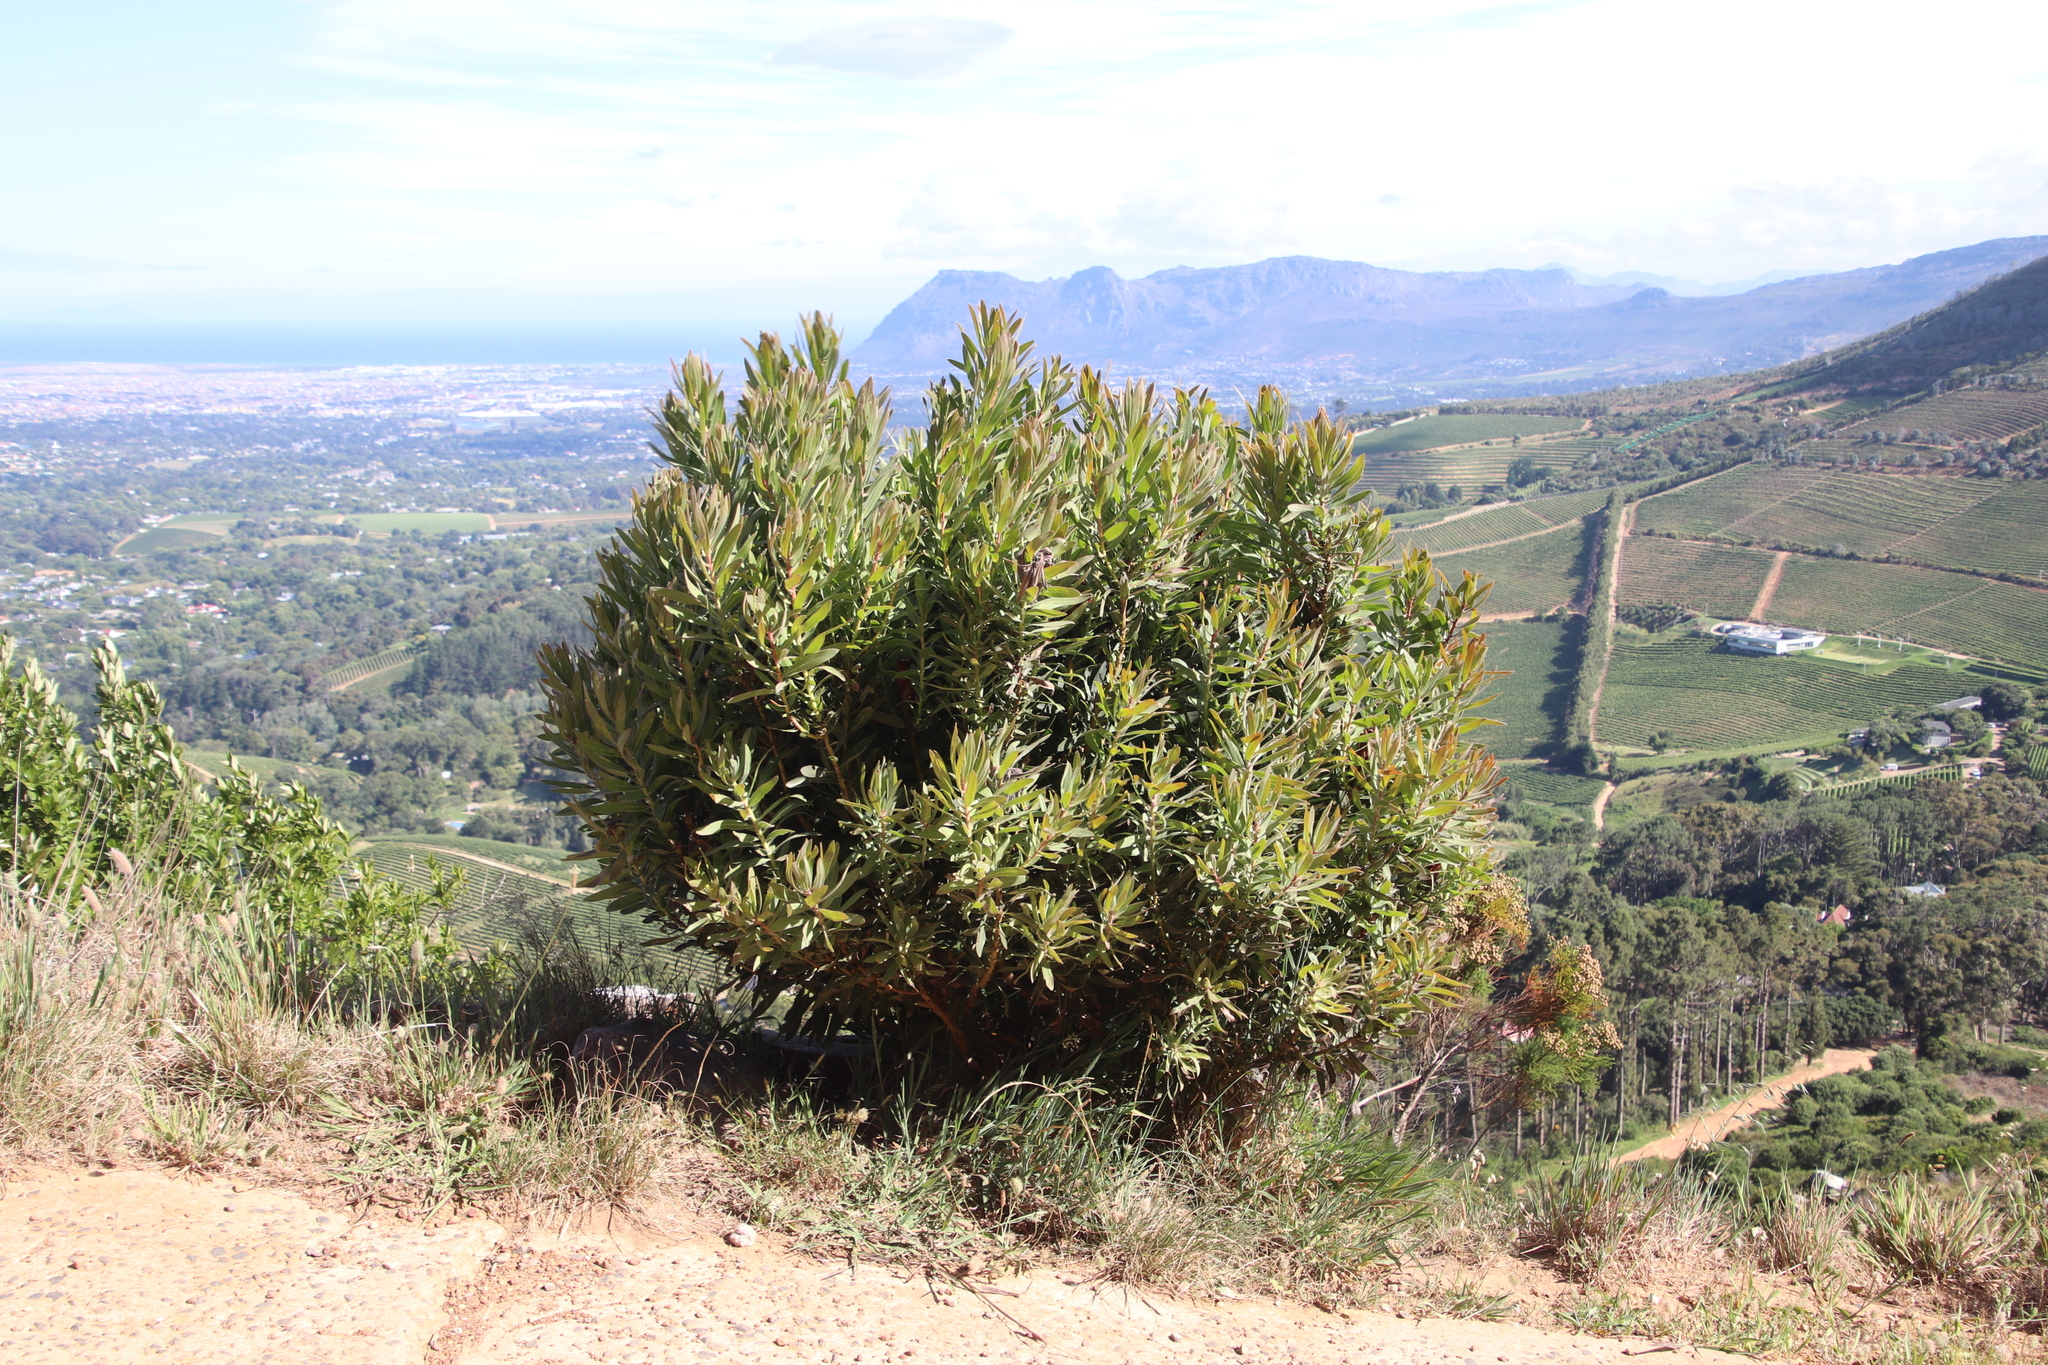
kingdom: Plantae
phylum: Tracheophyta
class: Magnoliopsida
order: Proteales
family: Proteaceae
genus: Protea
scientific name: Protea lepidocarpodendron
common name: Black-bearded protea
